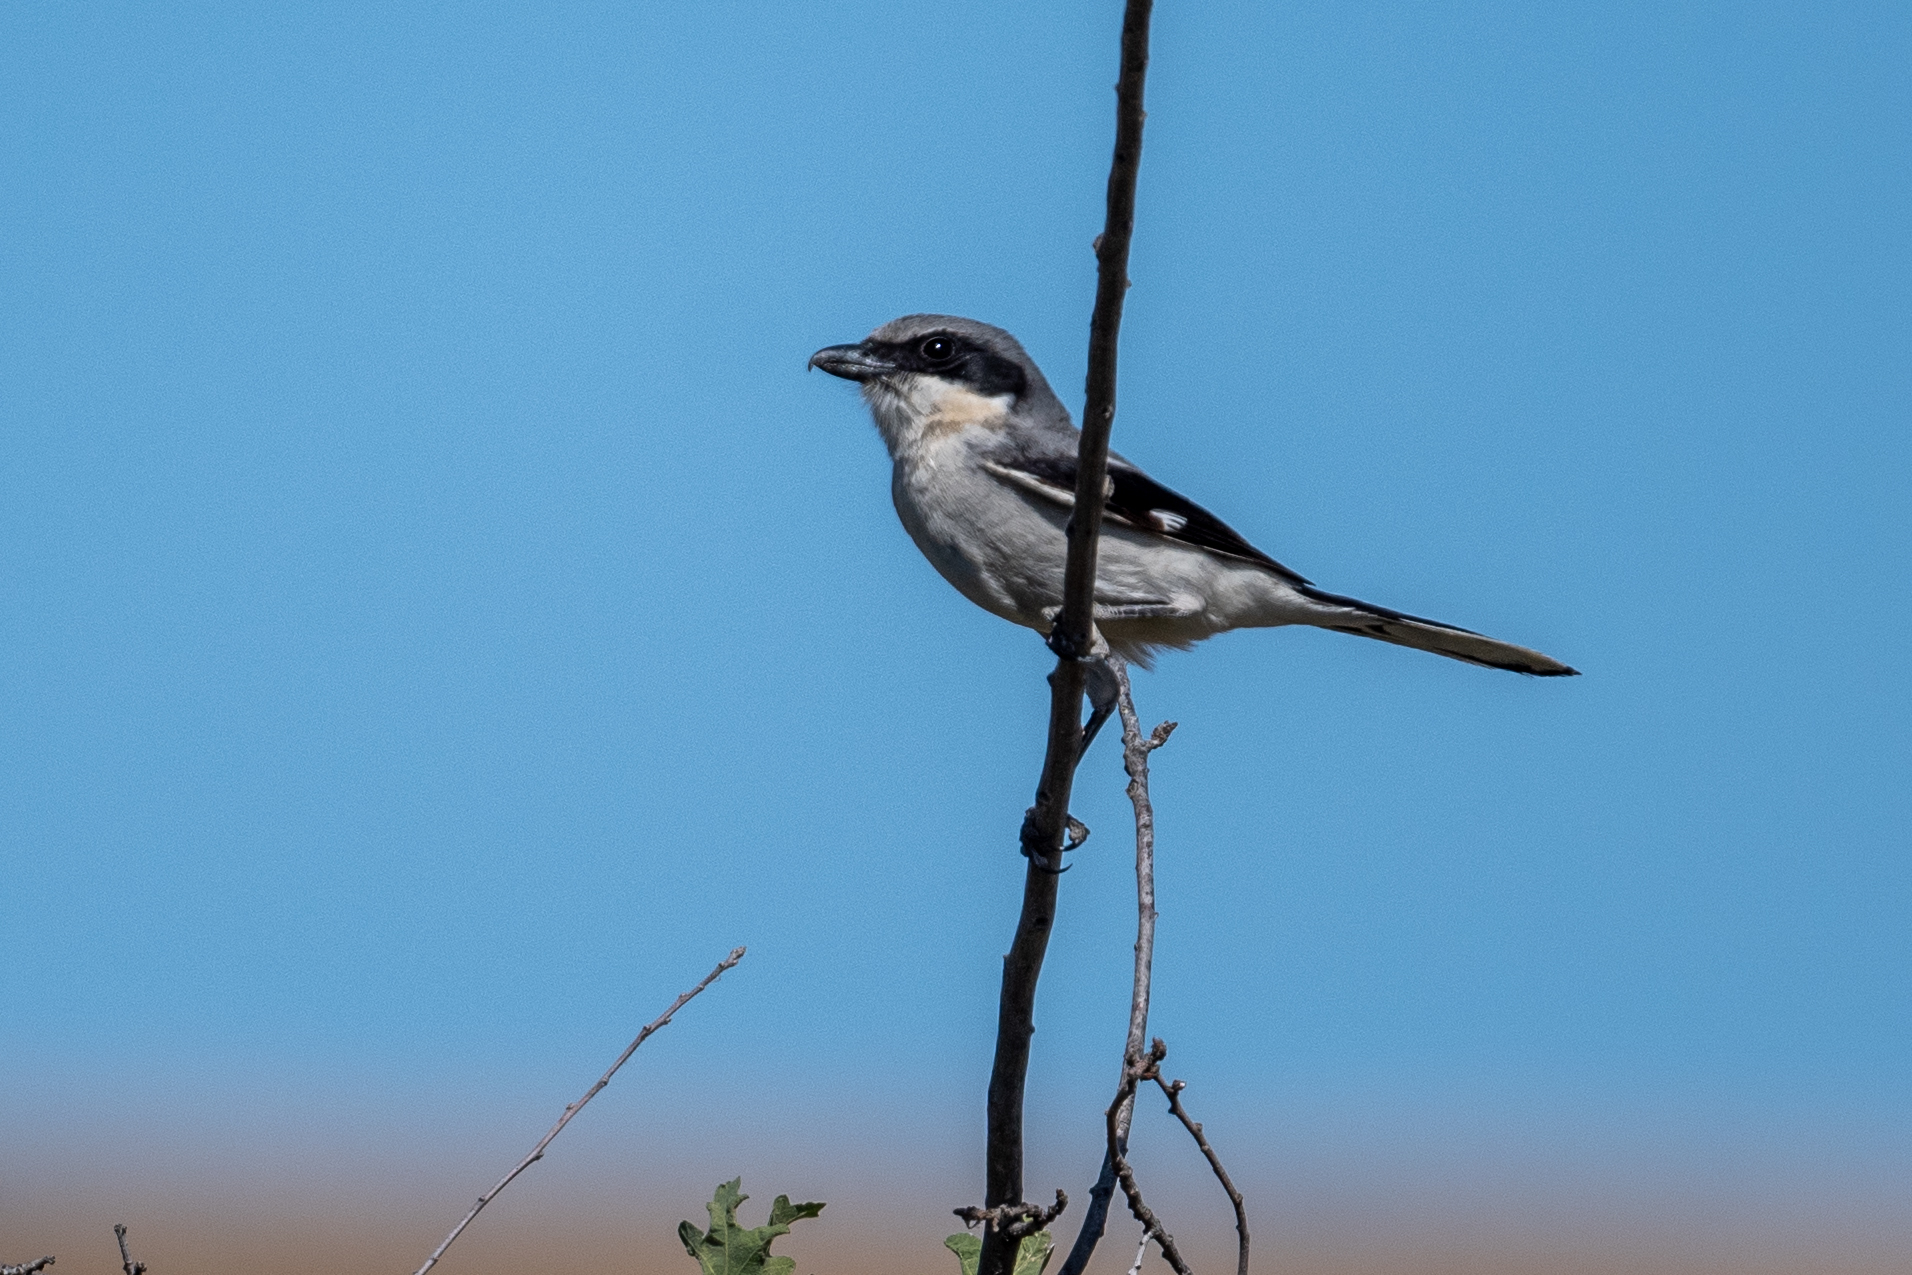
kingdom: Animalia
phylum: Chordata
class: Aves
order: Passeriformes
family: Laniidae
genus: Lanius
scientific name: Lanius ludovicianus
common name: Loggerhead shrike
